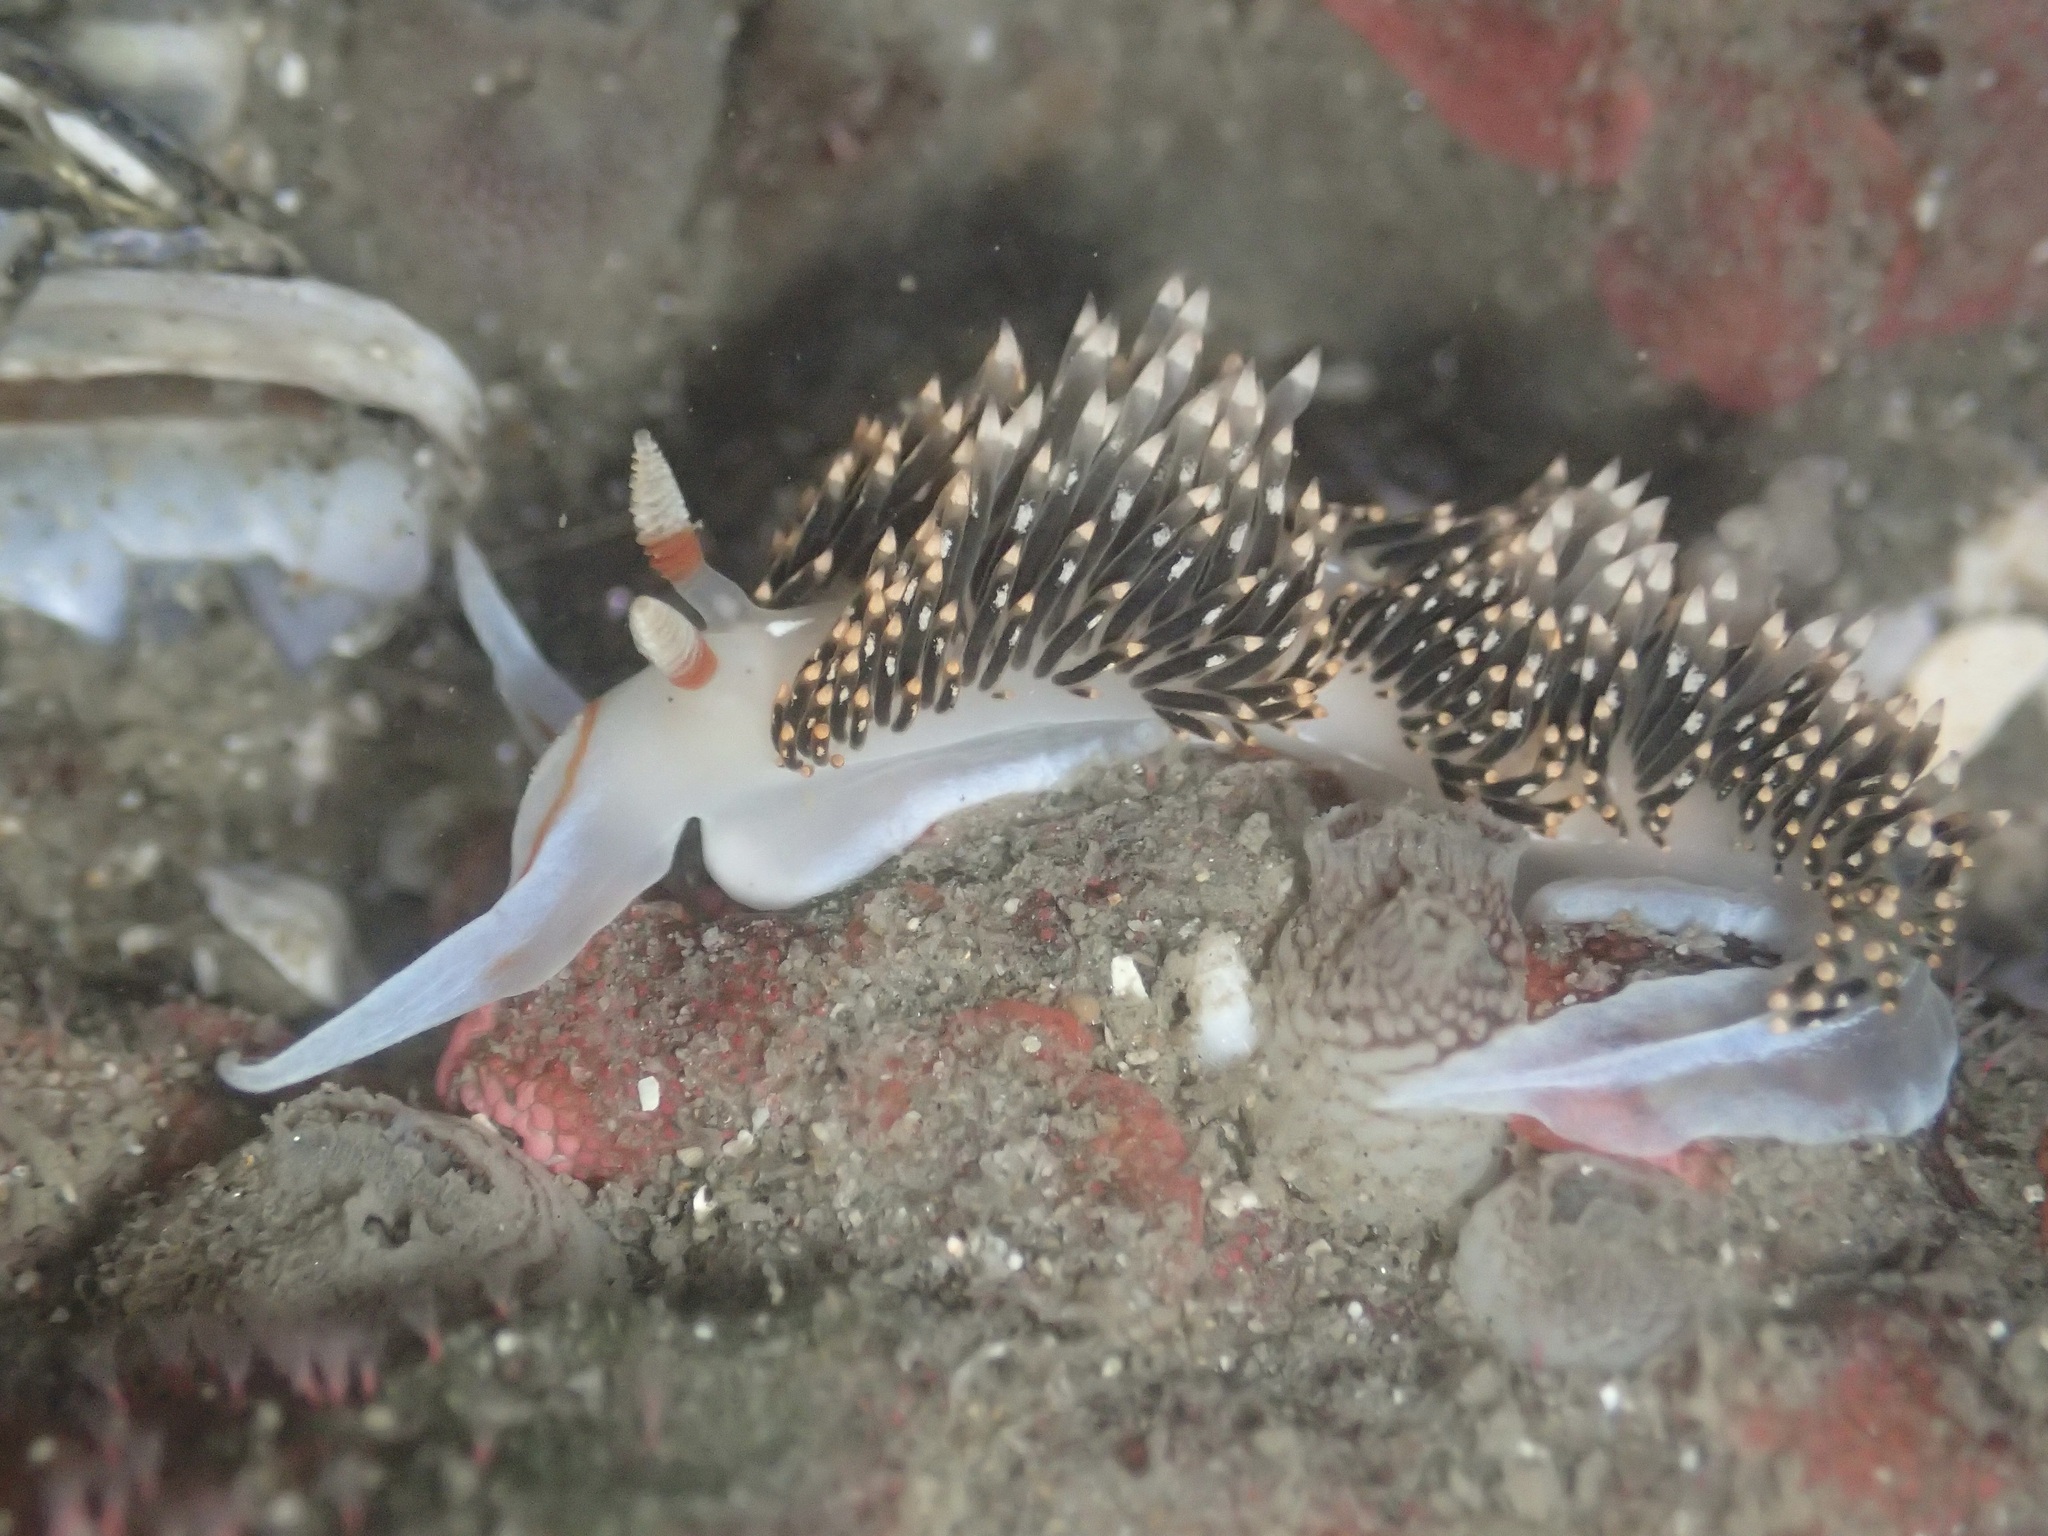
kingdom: Animalia
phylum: Mollusca
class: Gastropoda
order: Nudibranchia
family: Facelinidae
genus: Phidiana
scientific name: Phidiana hiltoni
